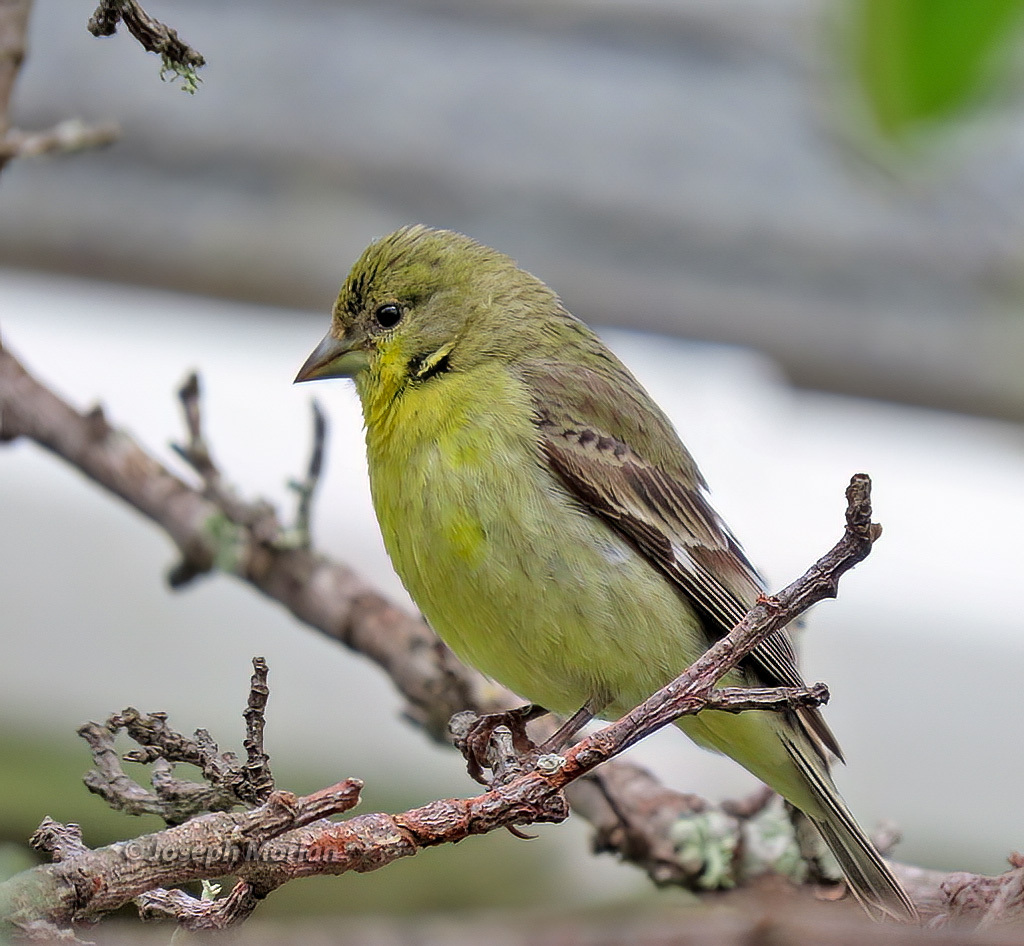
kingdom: Animalia
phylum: Chordata
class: Aves
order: Passeriformes
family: Fringillidae
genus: Spinus
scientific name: Spinus psaltria
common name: Lesser goldfinch
